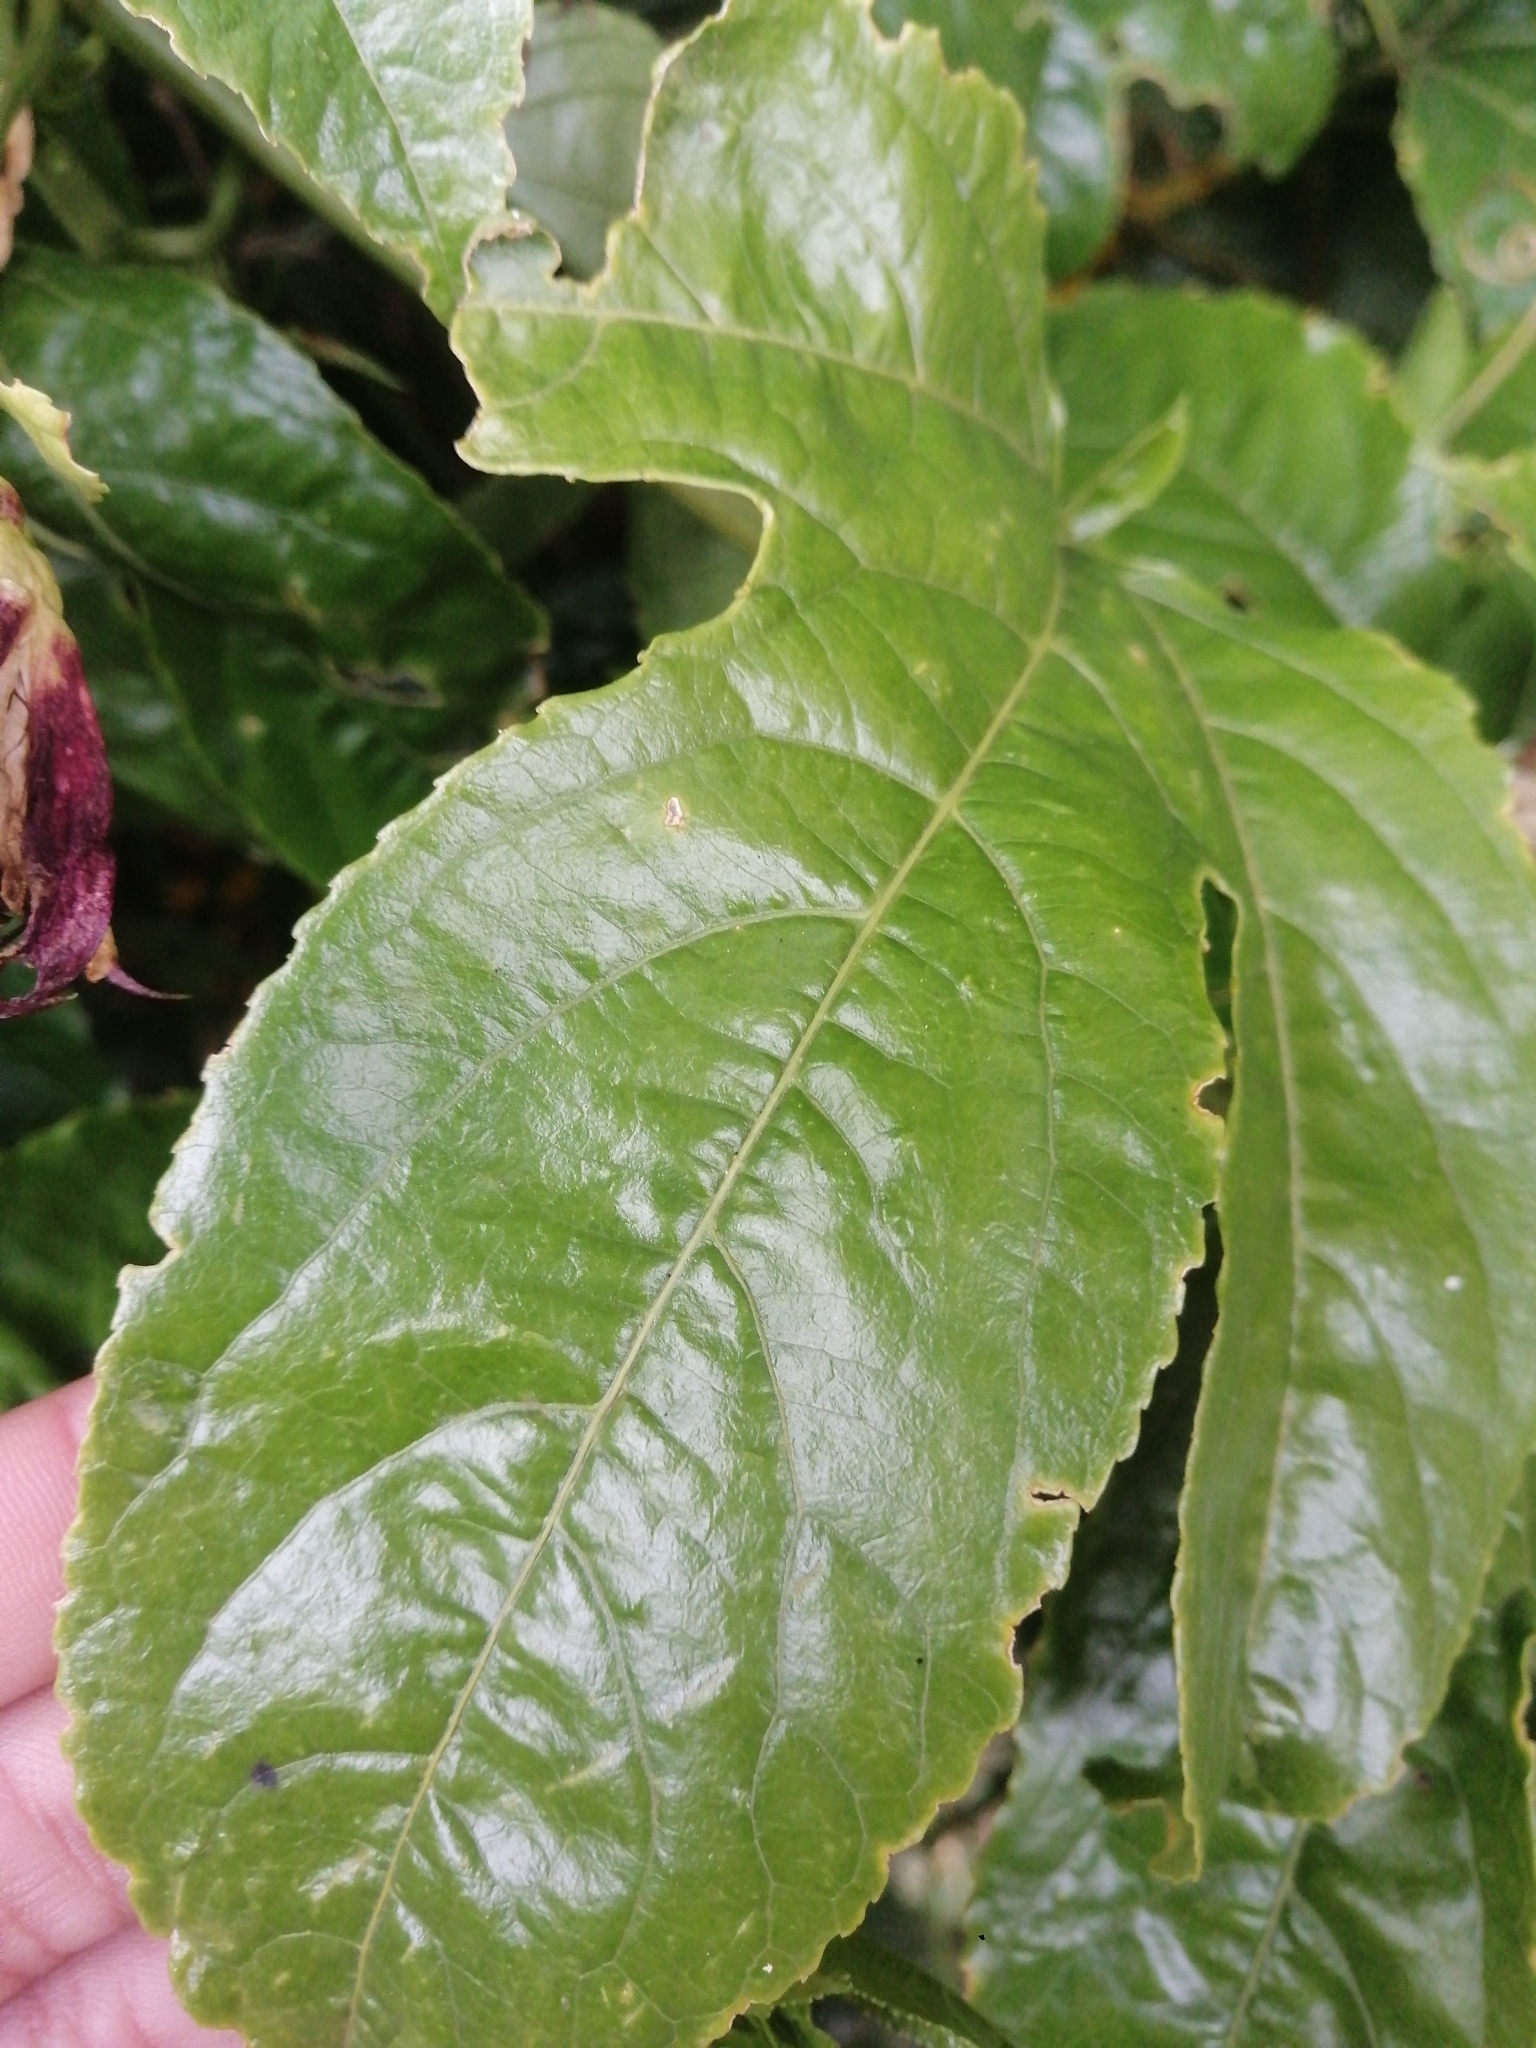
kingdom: Plantae
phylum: Tracheophyta
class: Magnoliopsida
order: Malpighiales
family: Passifloraceae
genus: Passiflora
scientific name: Passiflora edulis
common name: Purple granadilla
